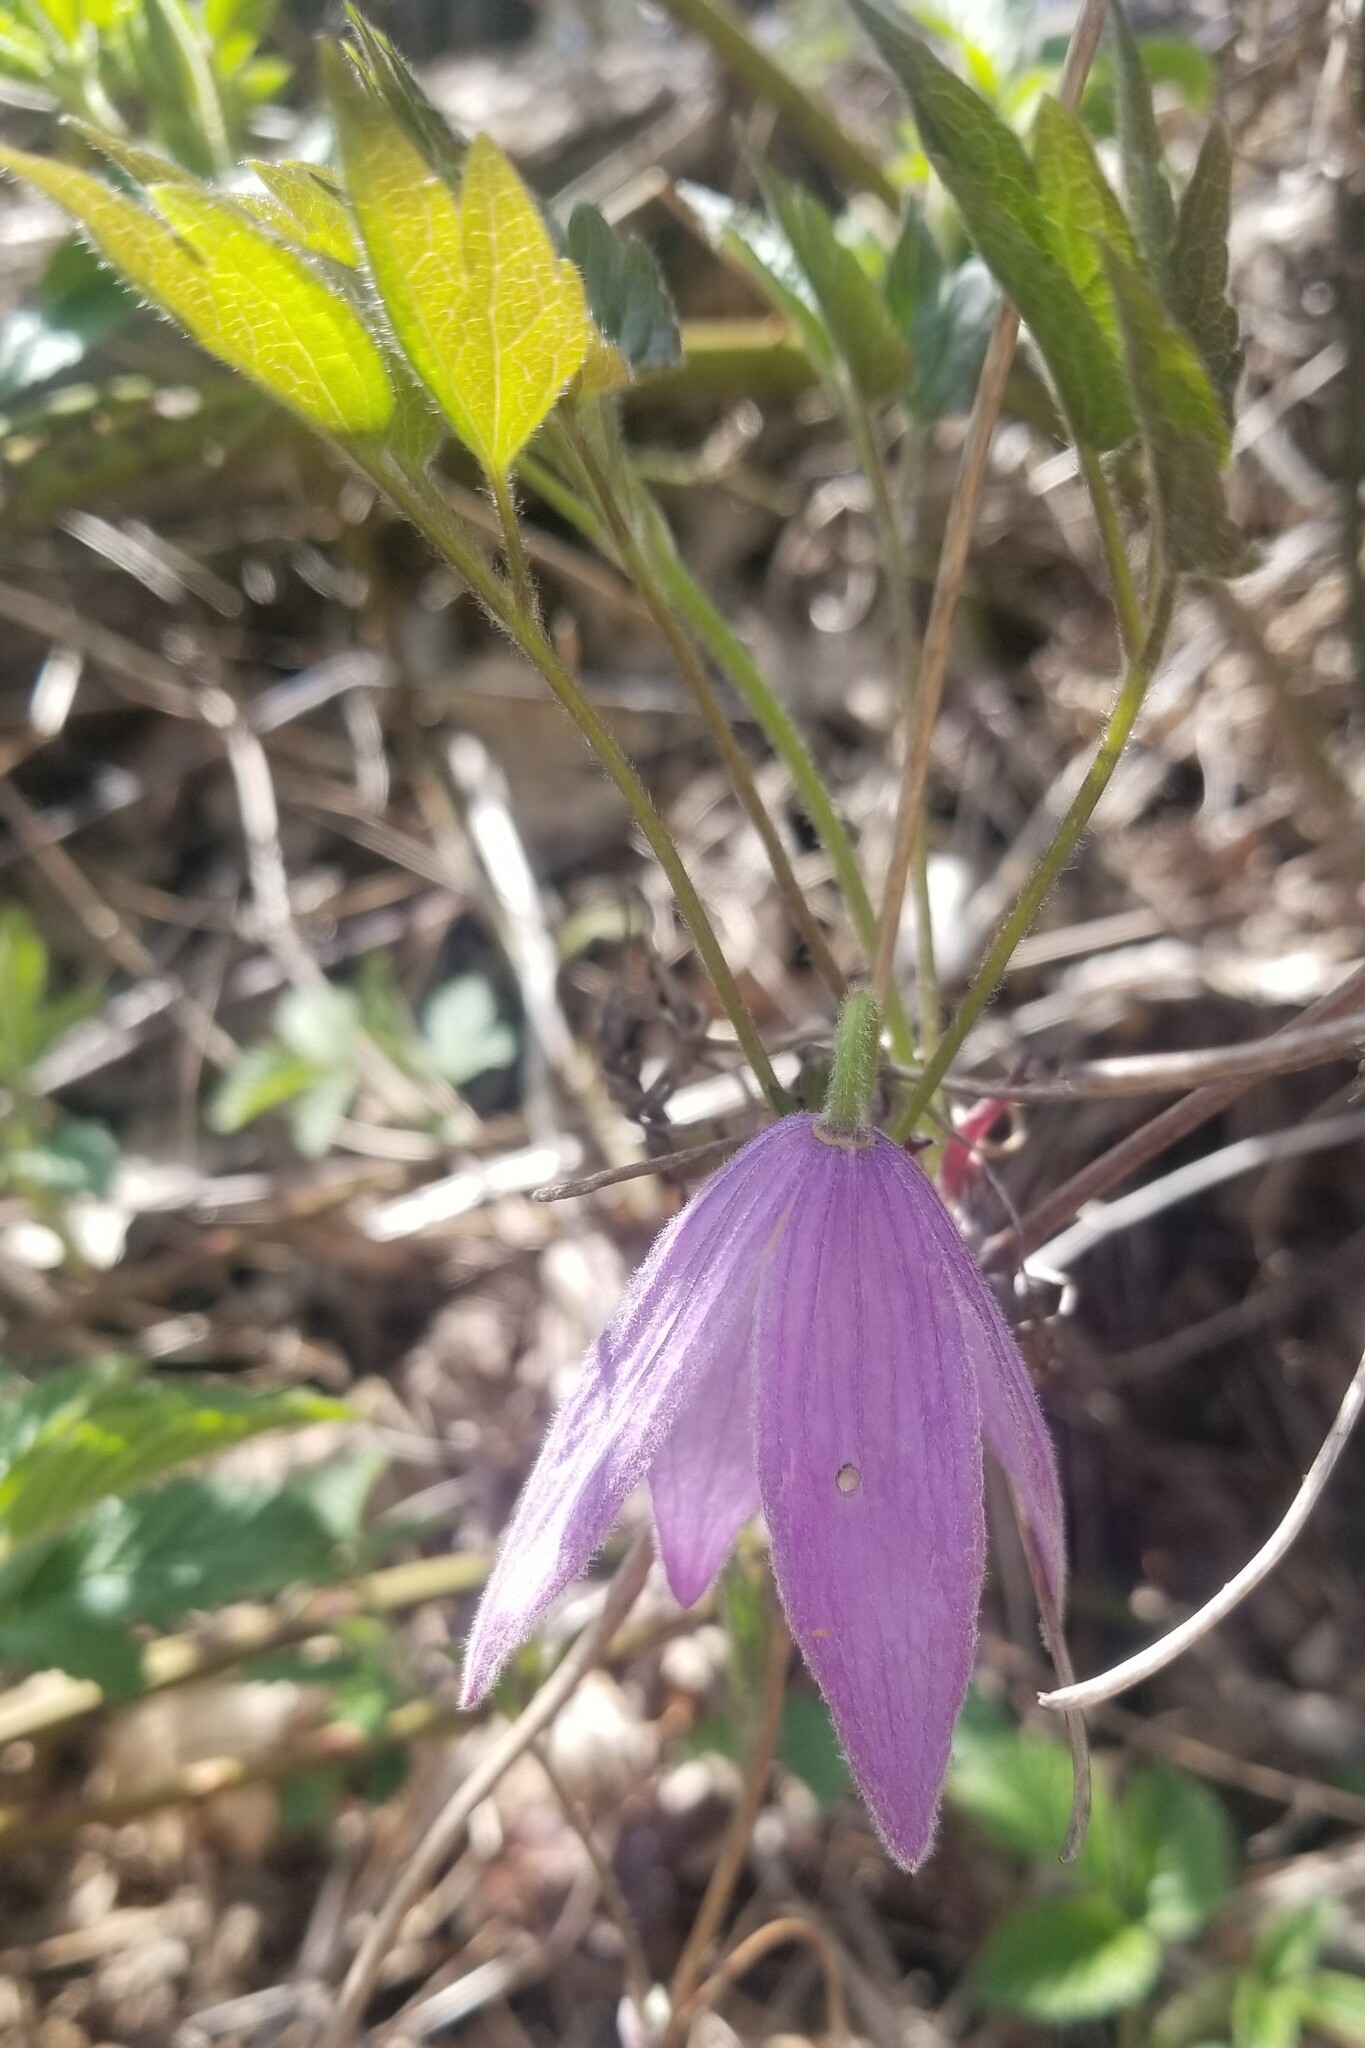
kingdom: Plantae
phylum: Tracheophyta
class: Magnoliopsida
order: Ranunculales
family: Ranunculaceae
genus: Clematis
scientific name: Clematis occidentalis
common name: Purple clematis
